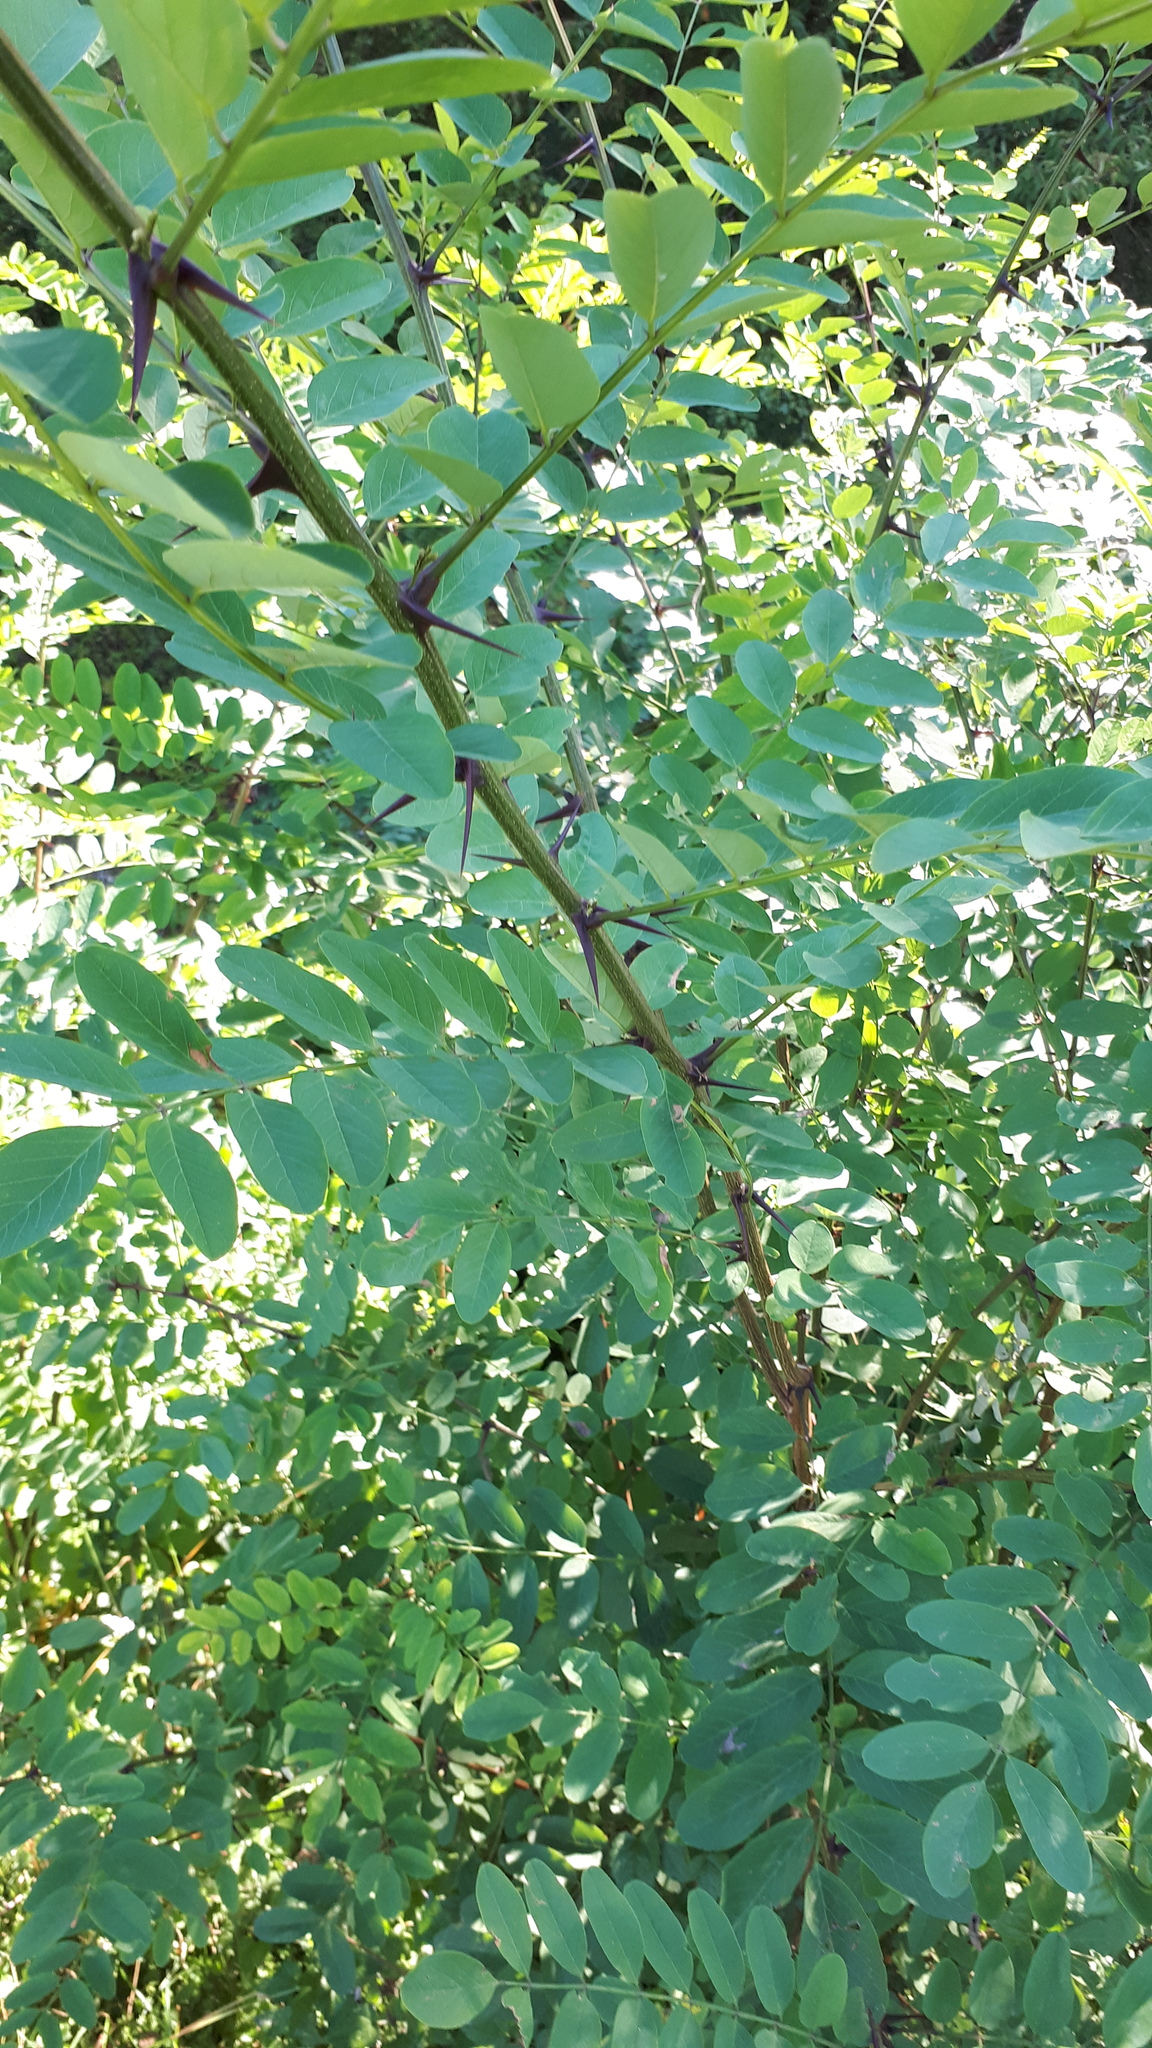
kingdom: Plantae
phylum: Tracheophyta
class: Magnoliopsida
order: Fabales
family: Fabaceae
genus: Robinia
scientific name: Robinia pseudoacacia
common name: Black locust
